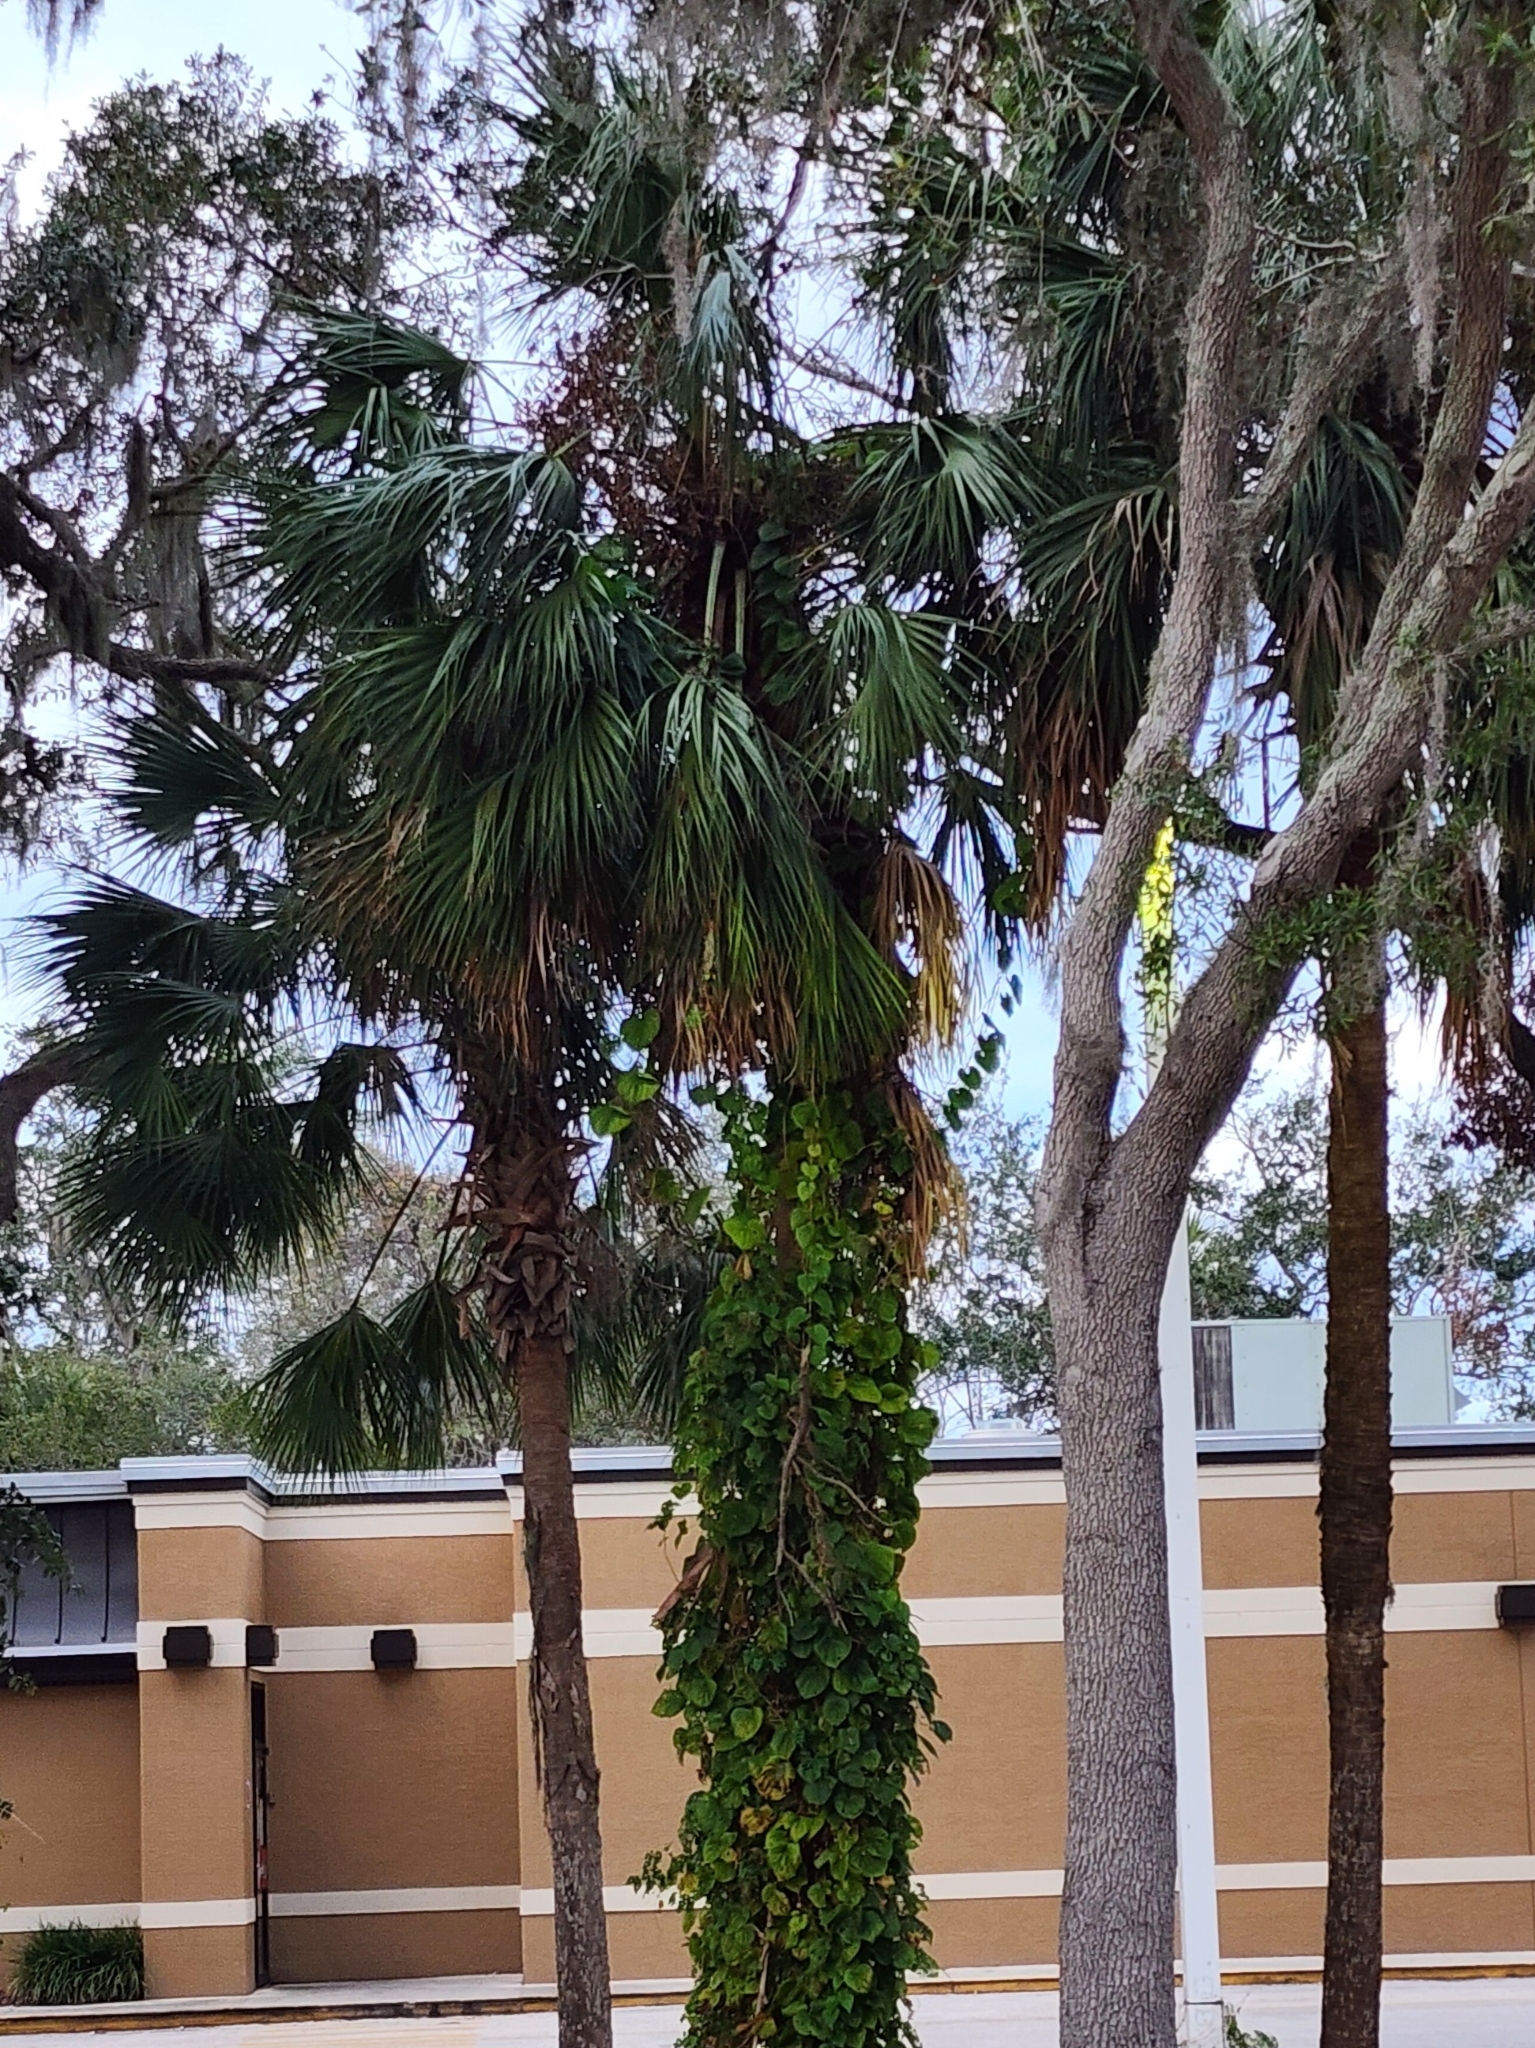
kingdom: Plantae
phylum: Tracheophyta
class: Liliopsida
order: Arecales
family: Arecaceae
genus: Sabal
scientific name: Sabal palmetto
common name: Blue palmetto
